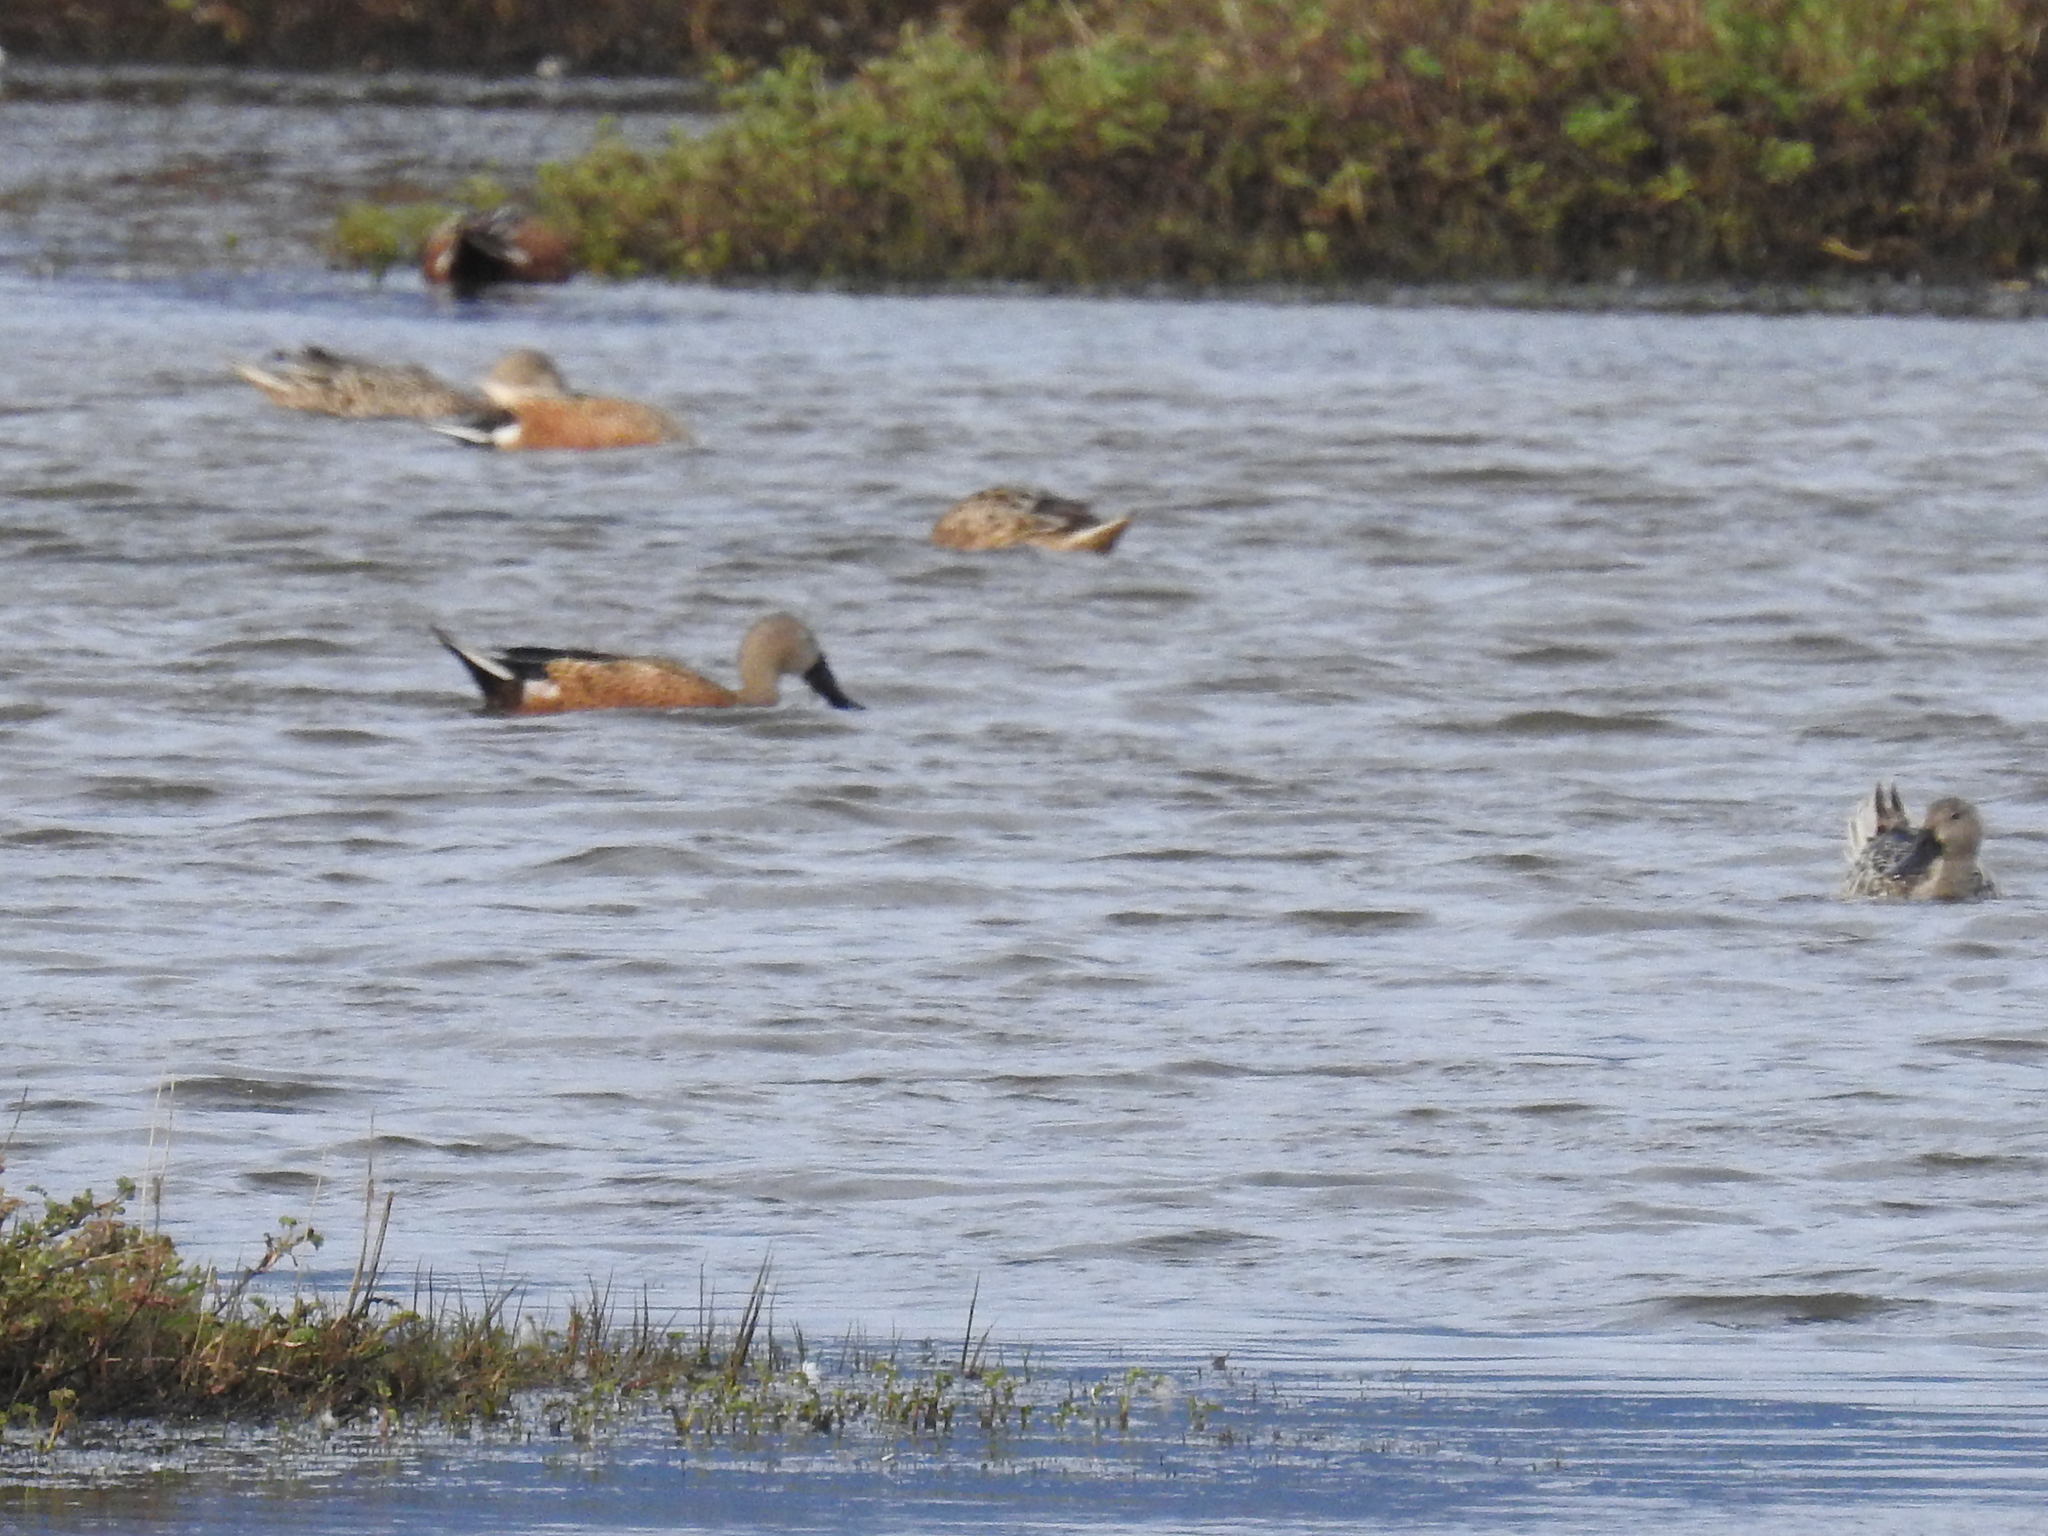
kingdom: Animalia
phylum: Chordata
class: Aves
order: Anseriformes
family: Anatidae
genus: Spatula
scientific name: Spatula platalea
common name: Red shoveler
